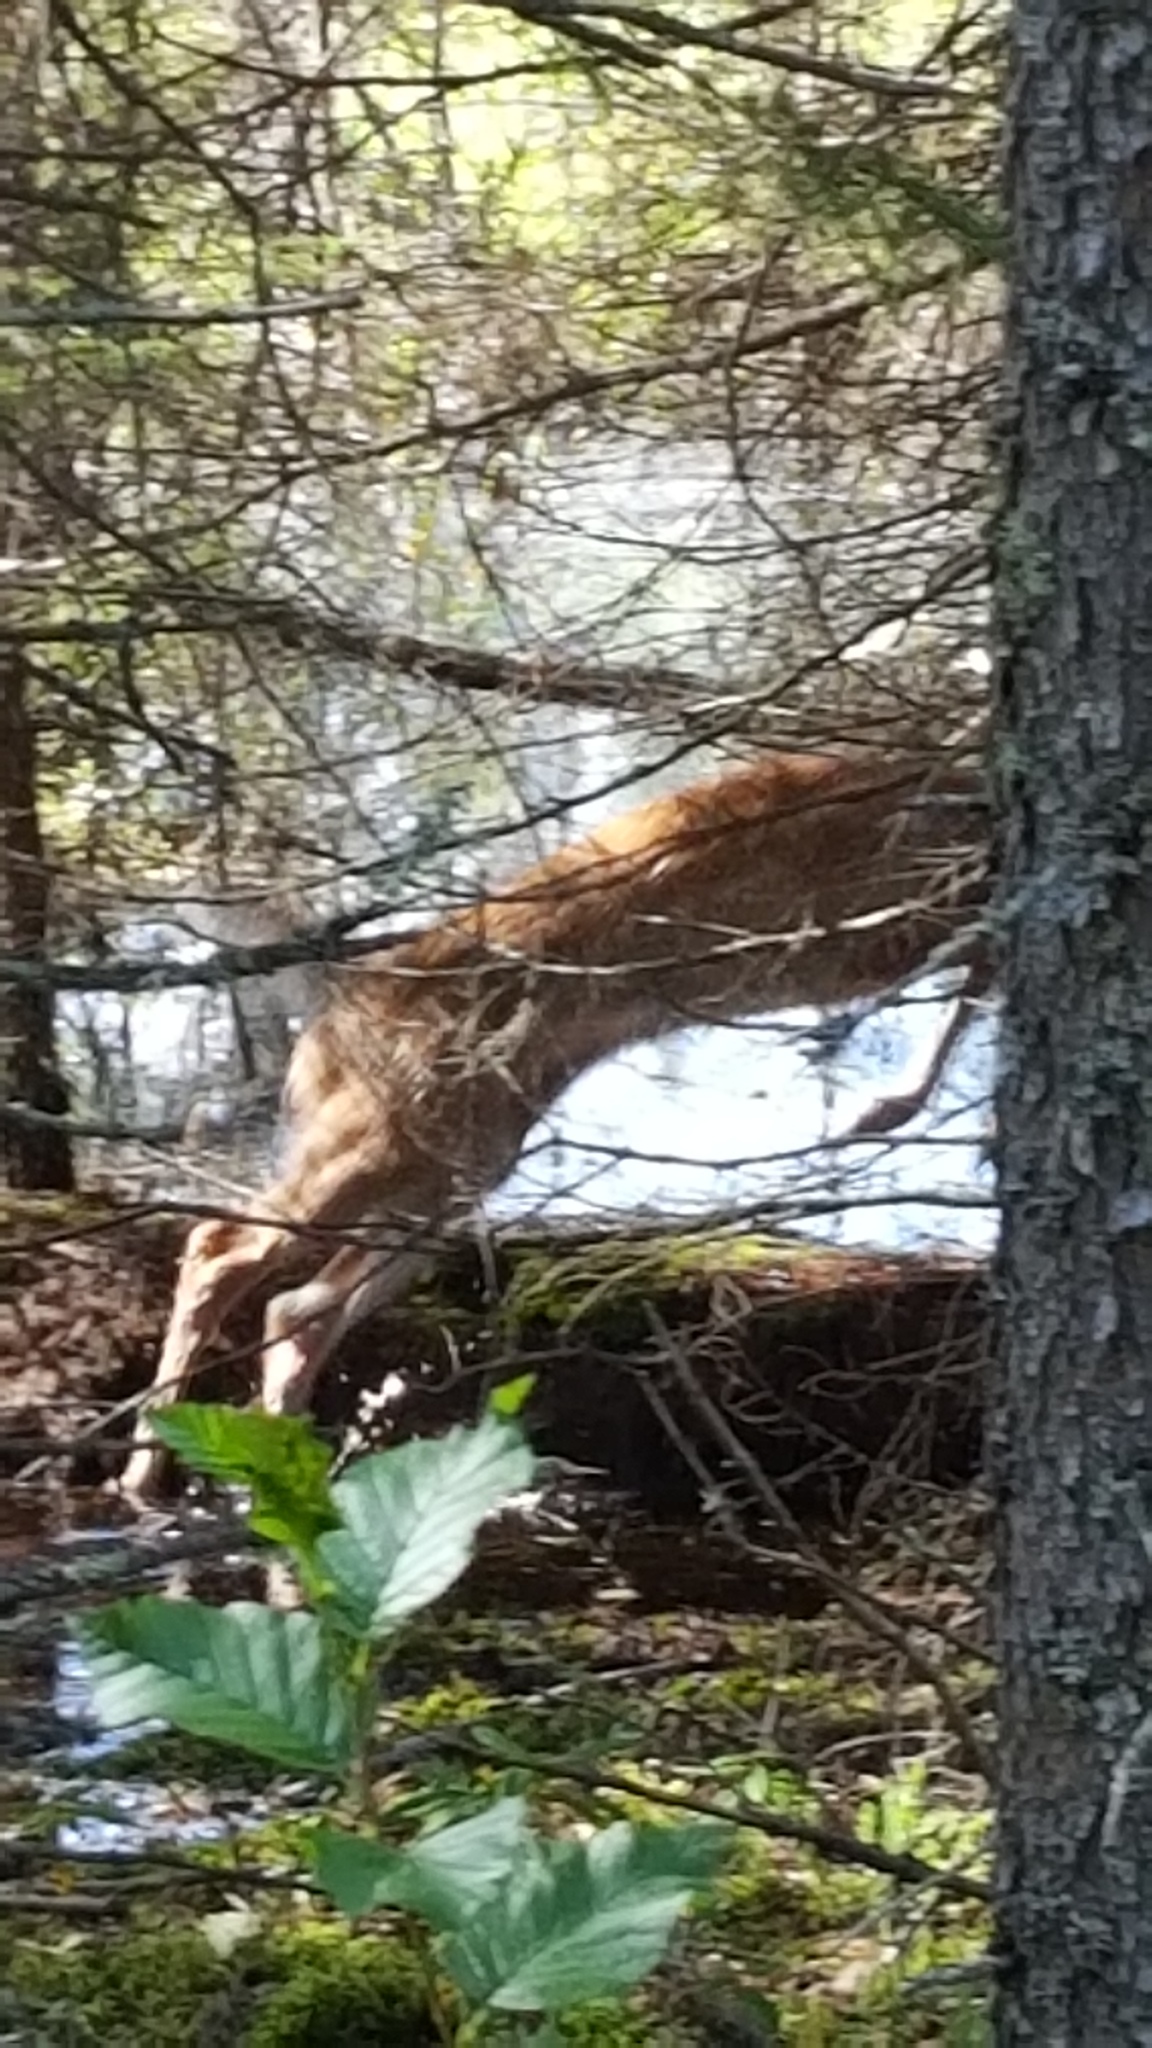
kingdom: Animalia
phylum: Chordata
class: Mammalia
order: Artiodactyla
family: Cervidae
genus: Odocoileus
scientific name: Odocoileus virginianus
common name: White-tailed deer
